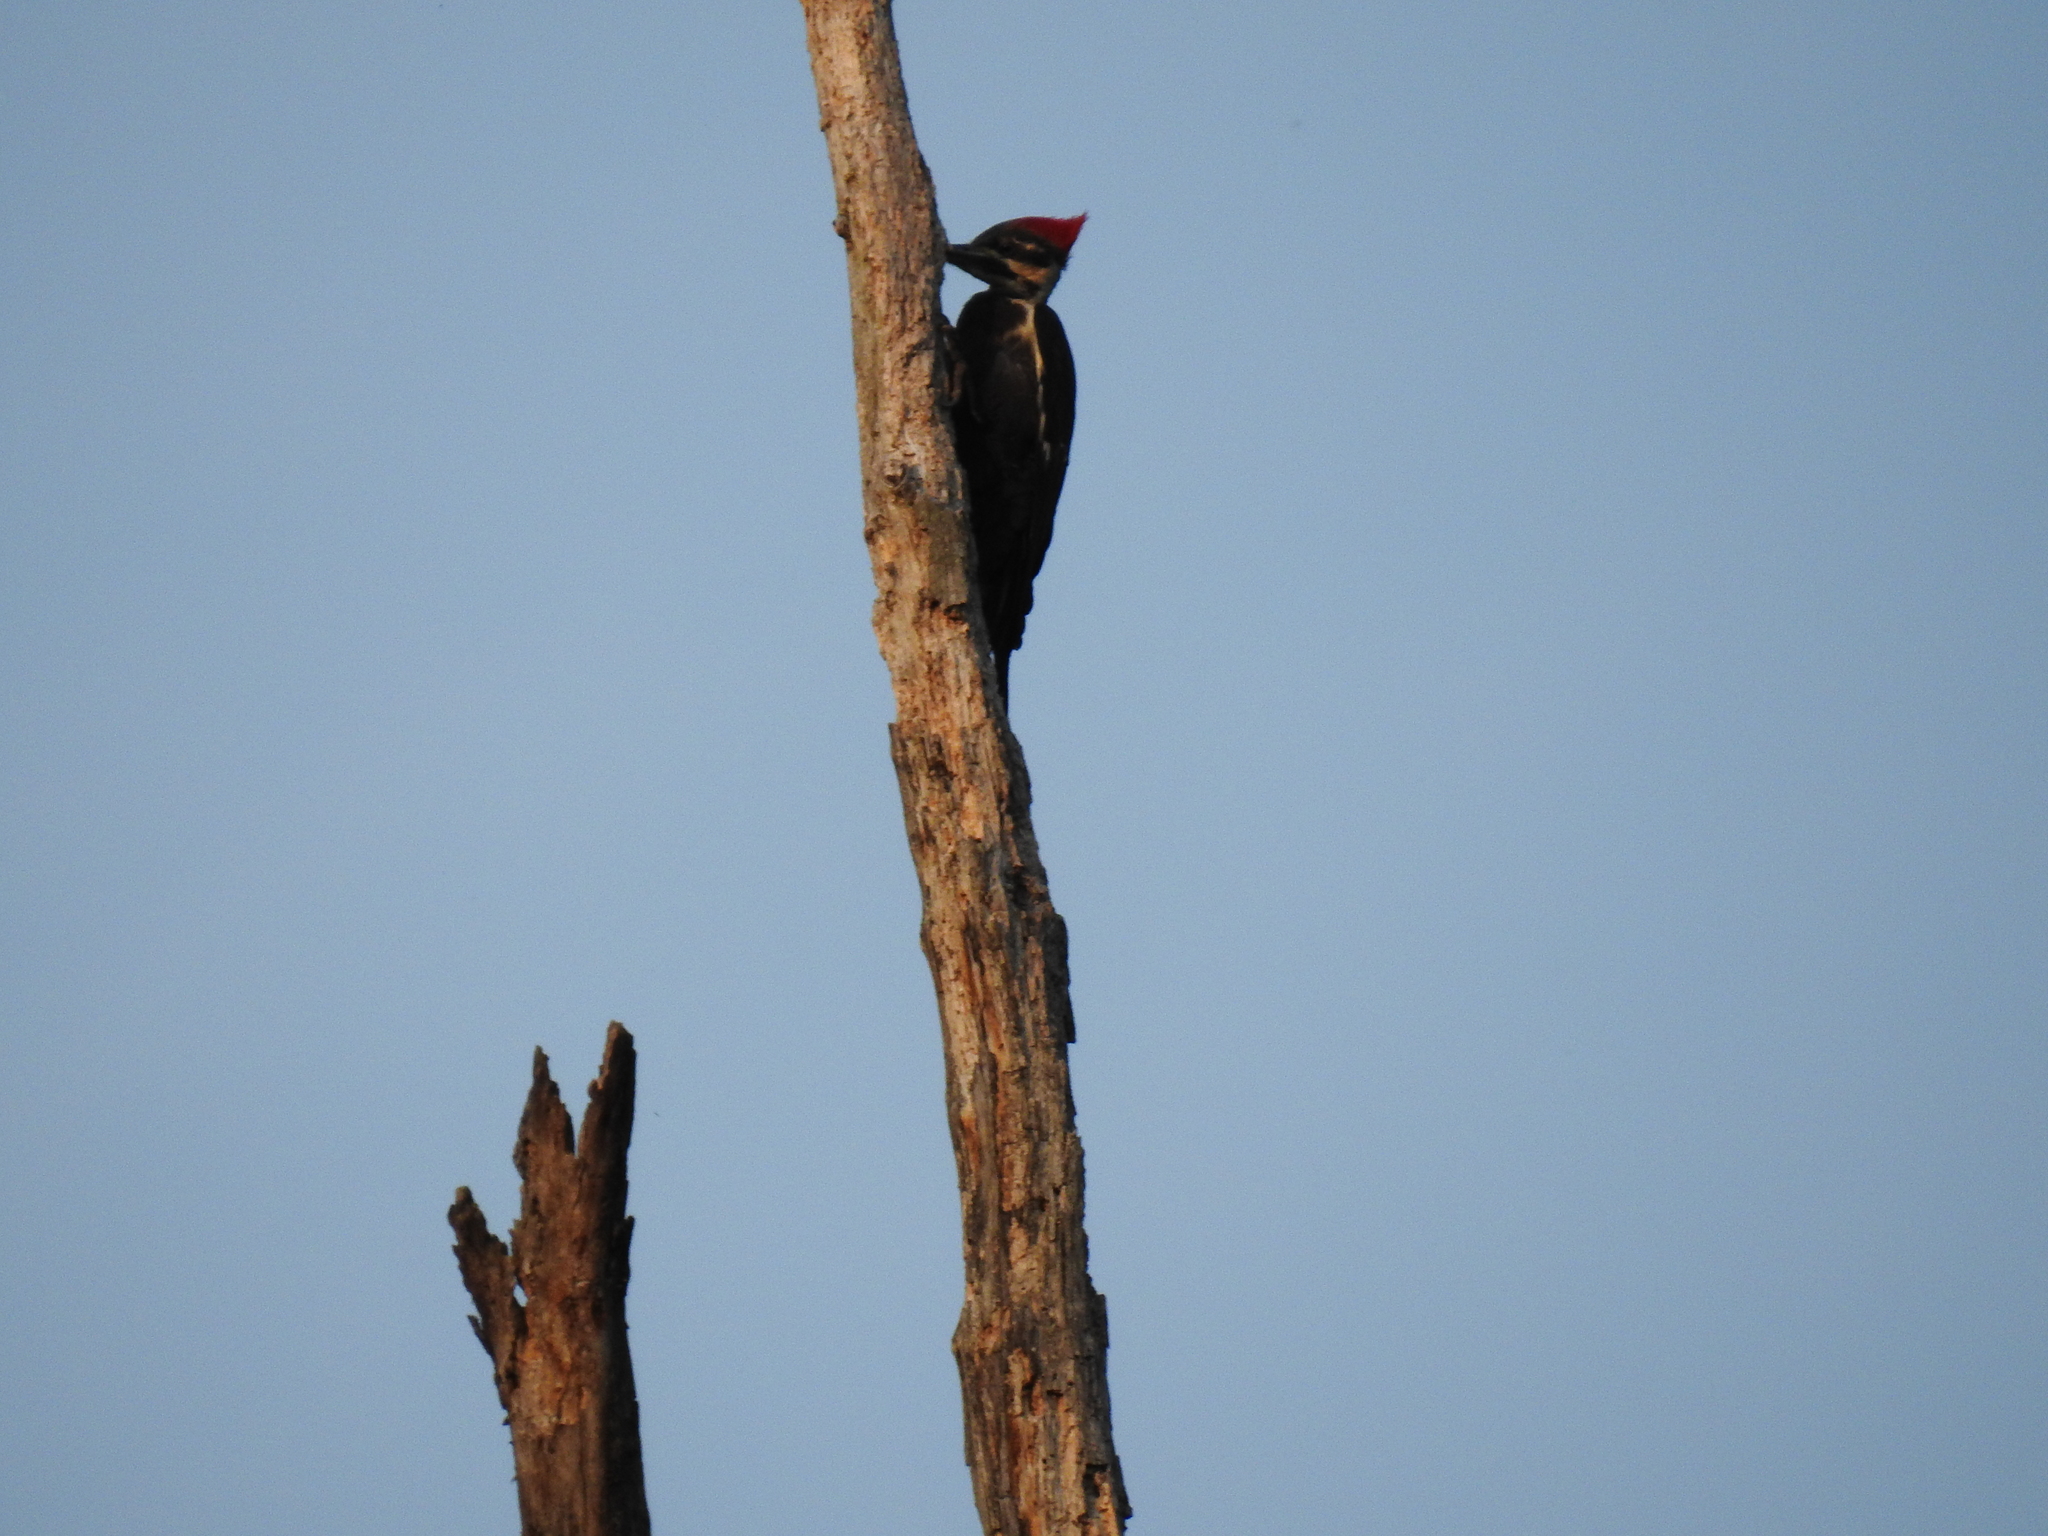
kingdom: Animalia
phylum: Chordata
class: Aves
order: Piciformes
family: Picidae
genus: Dryocopus
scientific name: Dryocopus pileatus
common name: Pileated woodpecker
